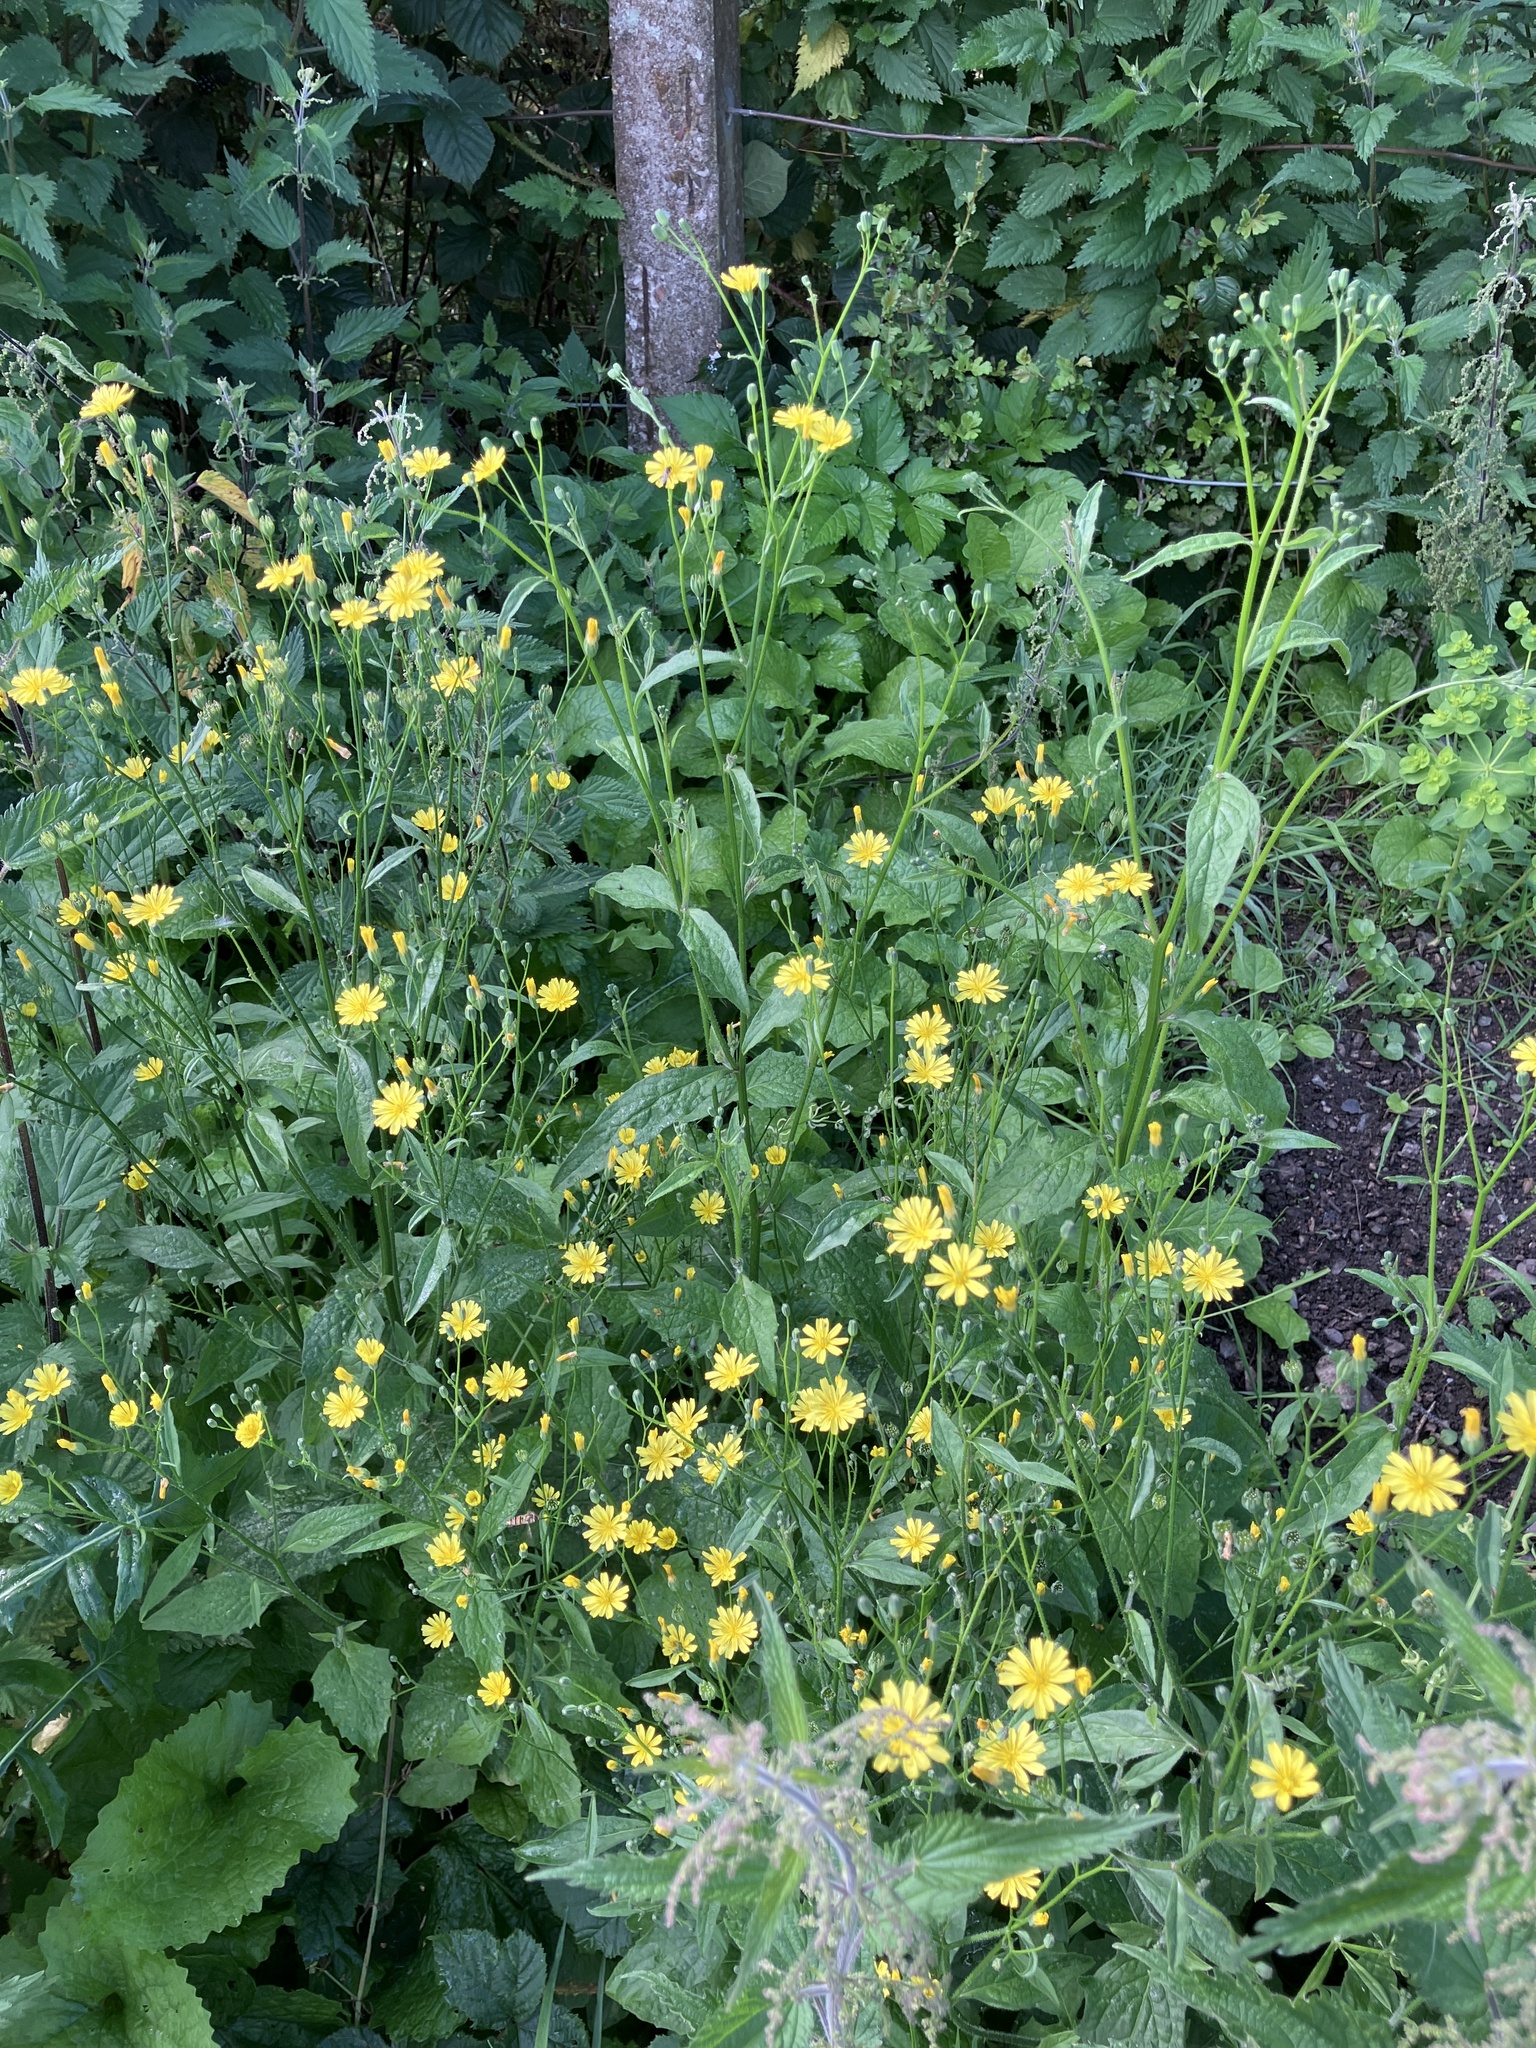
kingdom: Plantae
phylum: Tracheophyta
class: Magnoliopsida
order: Asterales
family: Asteraceae
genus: Lapsana
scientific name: Lapsana communis
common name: Nipplewort
